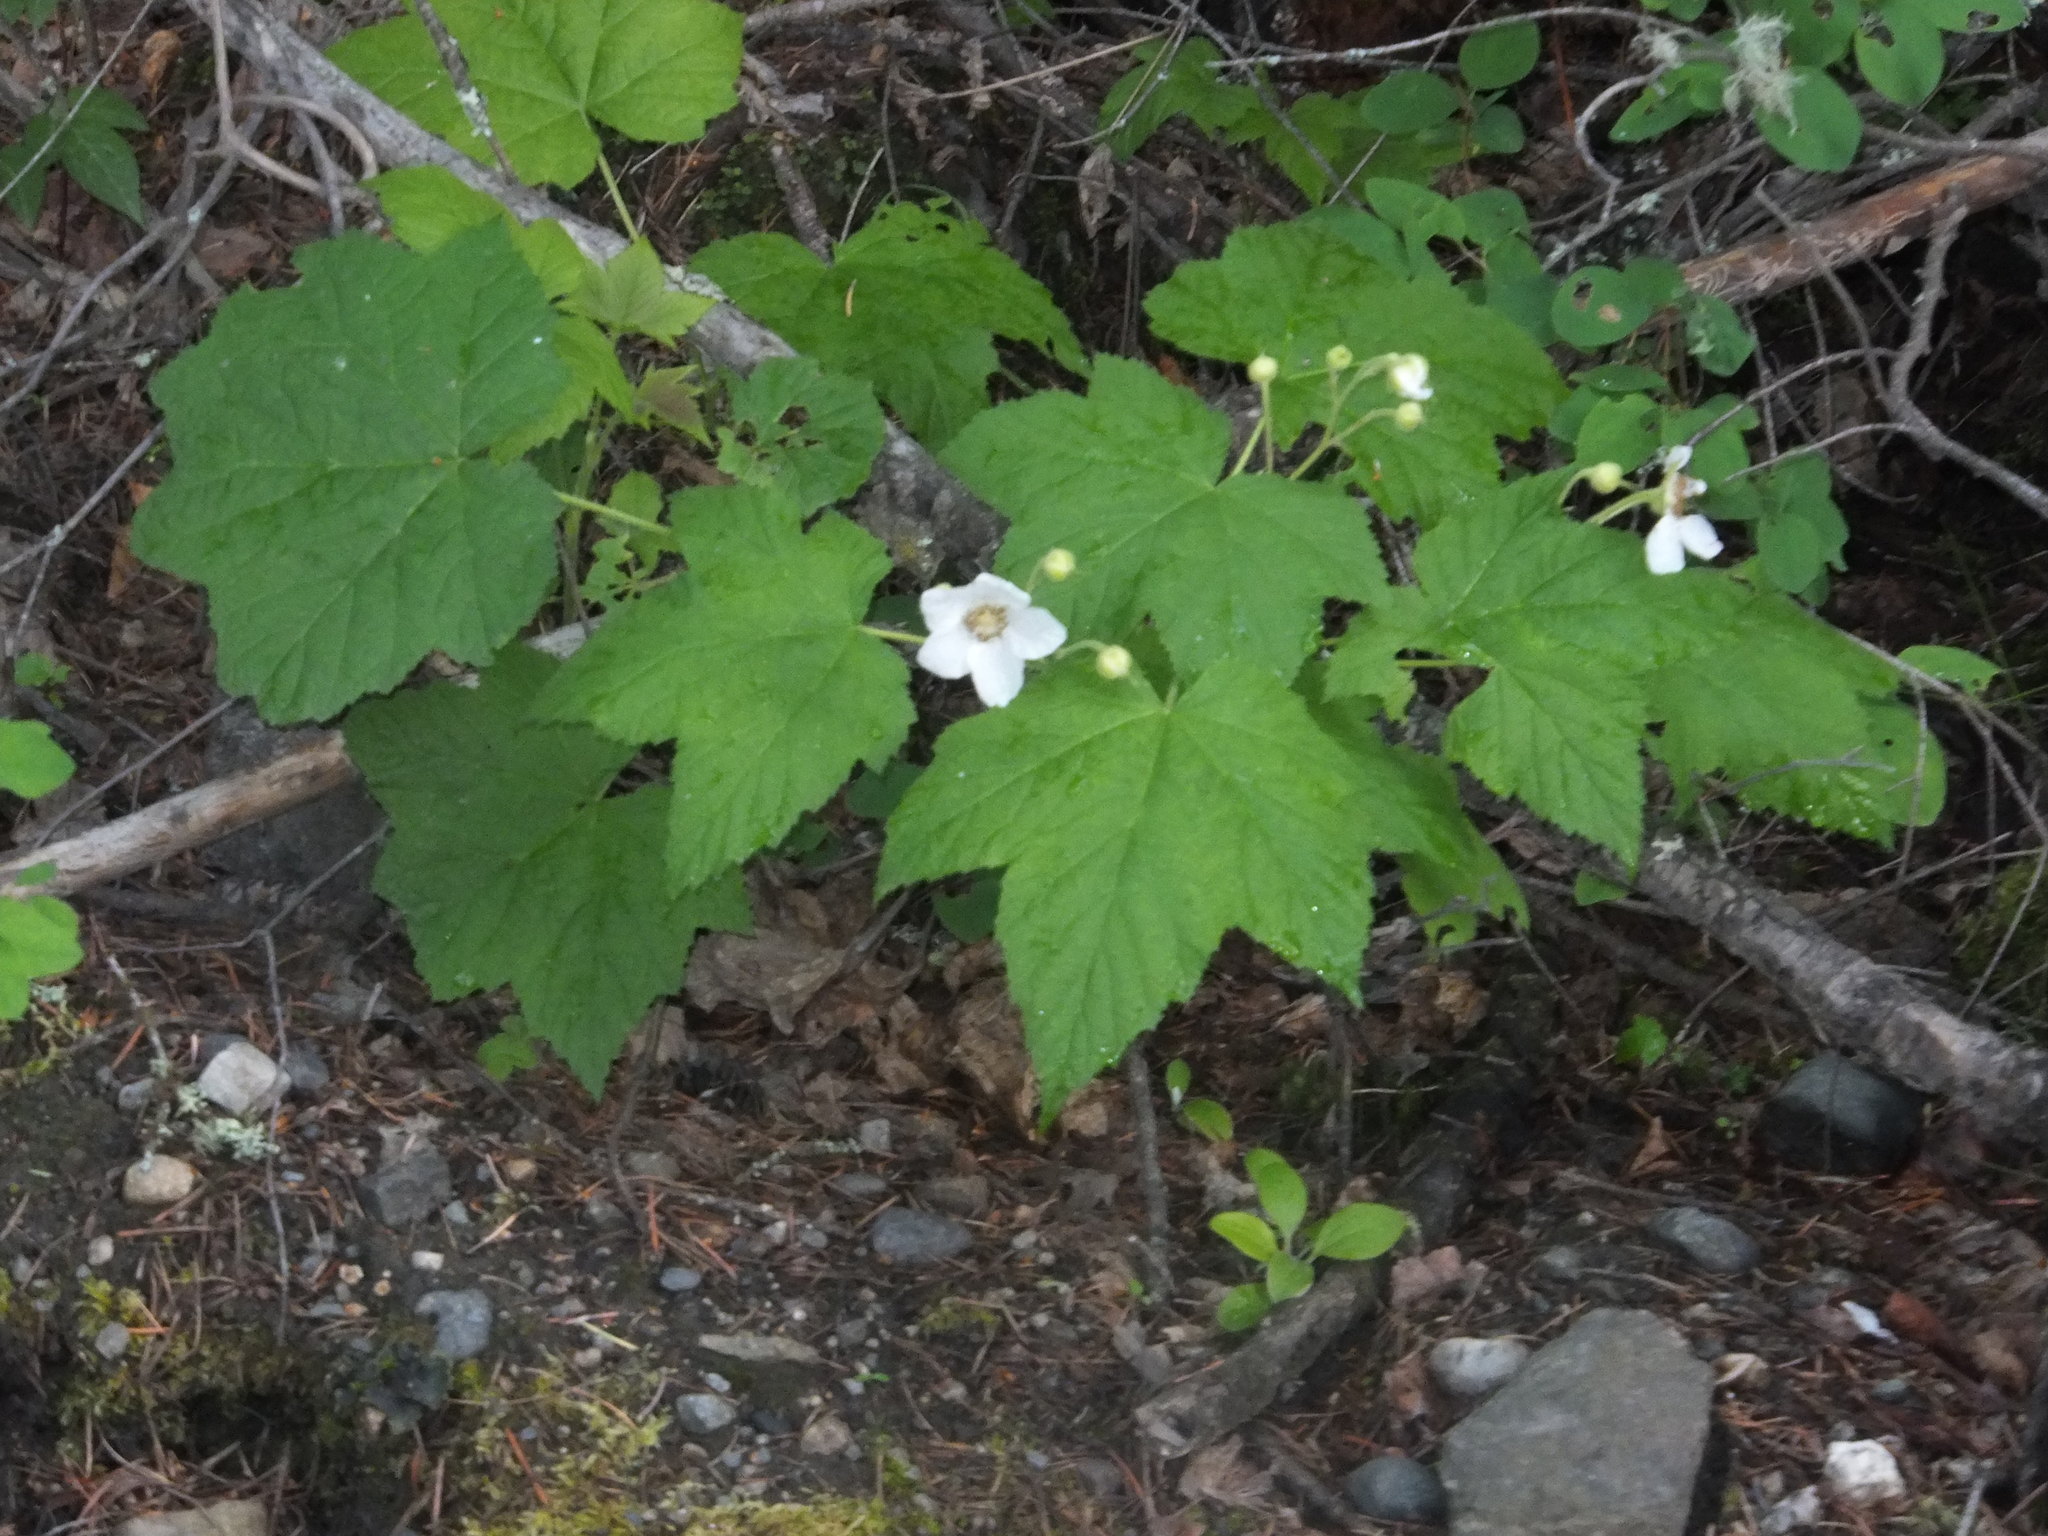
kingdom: Plantae
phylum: Tracheophyta
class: Magnoliopsida
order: Rosales
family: Rosaceae
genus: Rubus
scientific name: Rubus parviflorus
